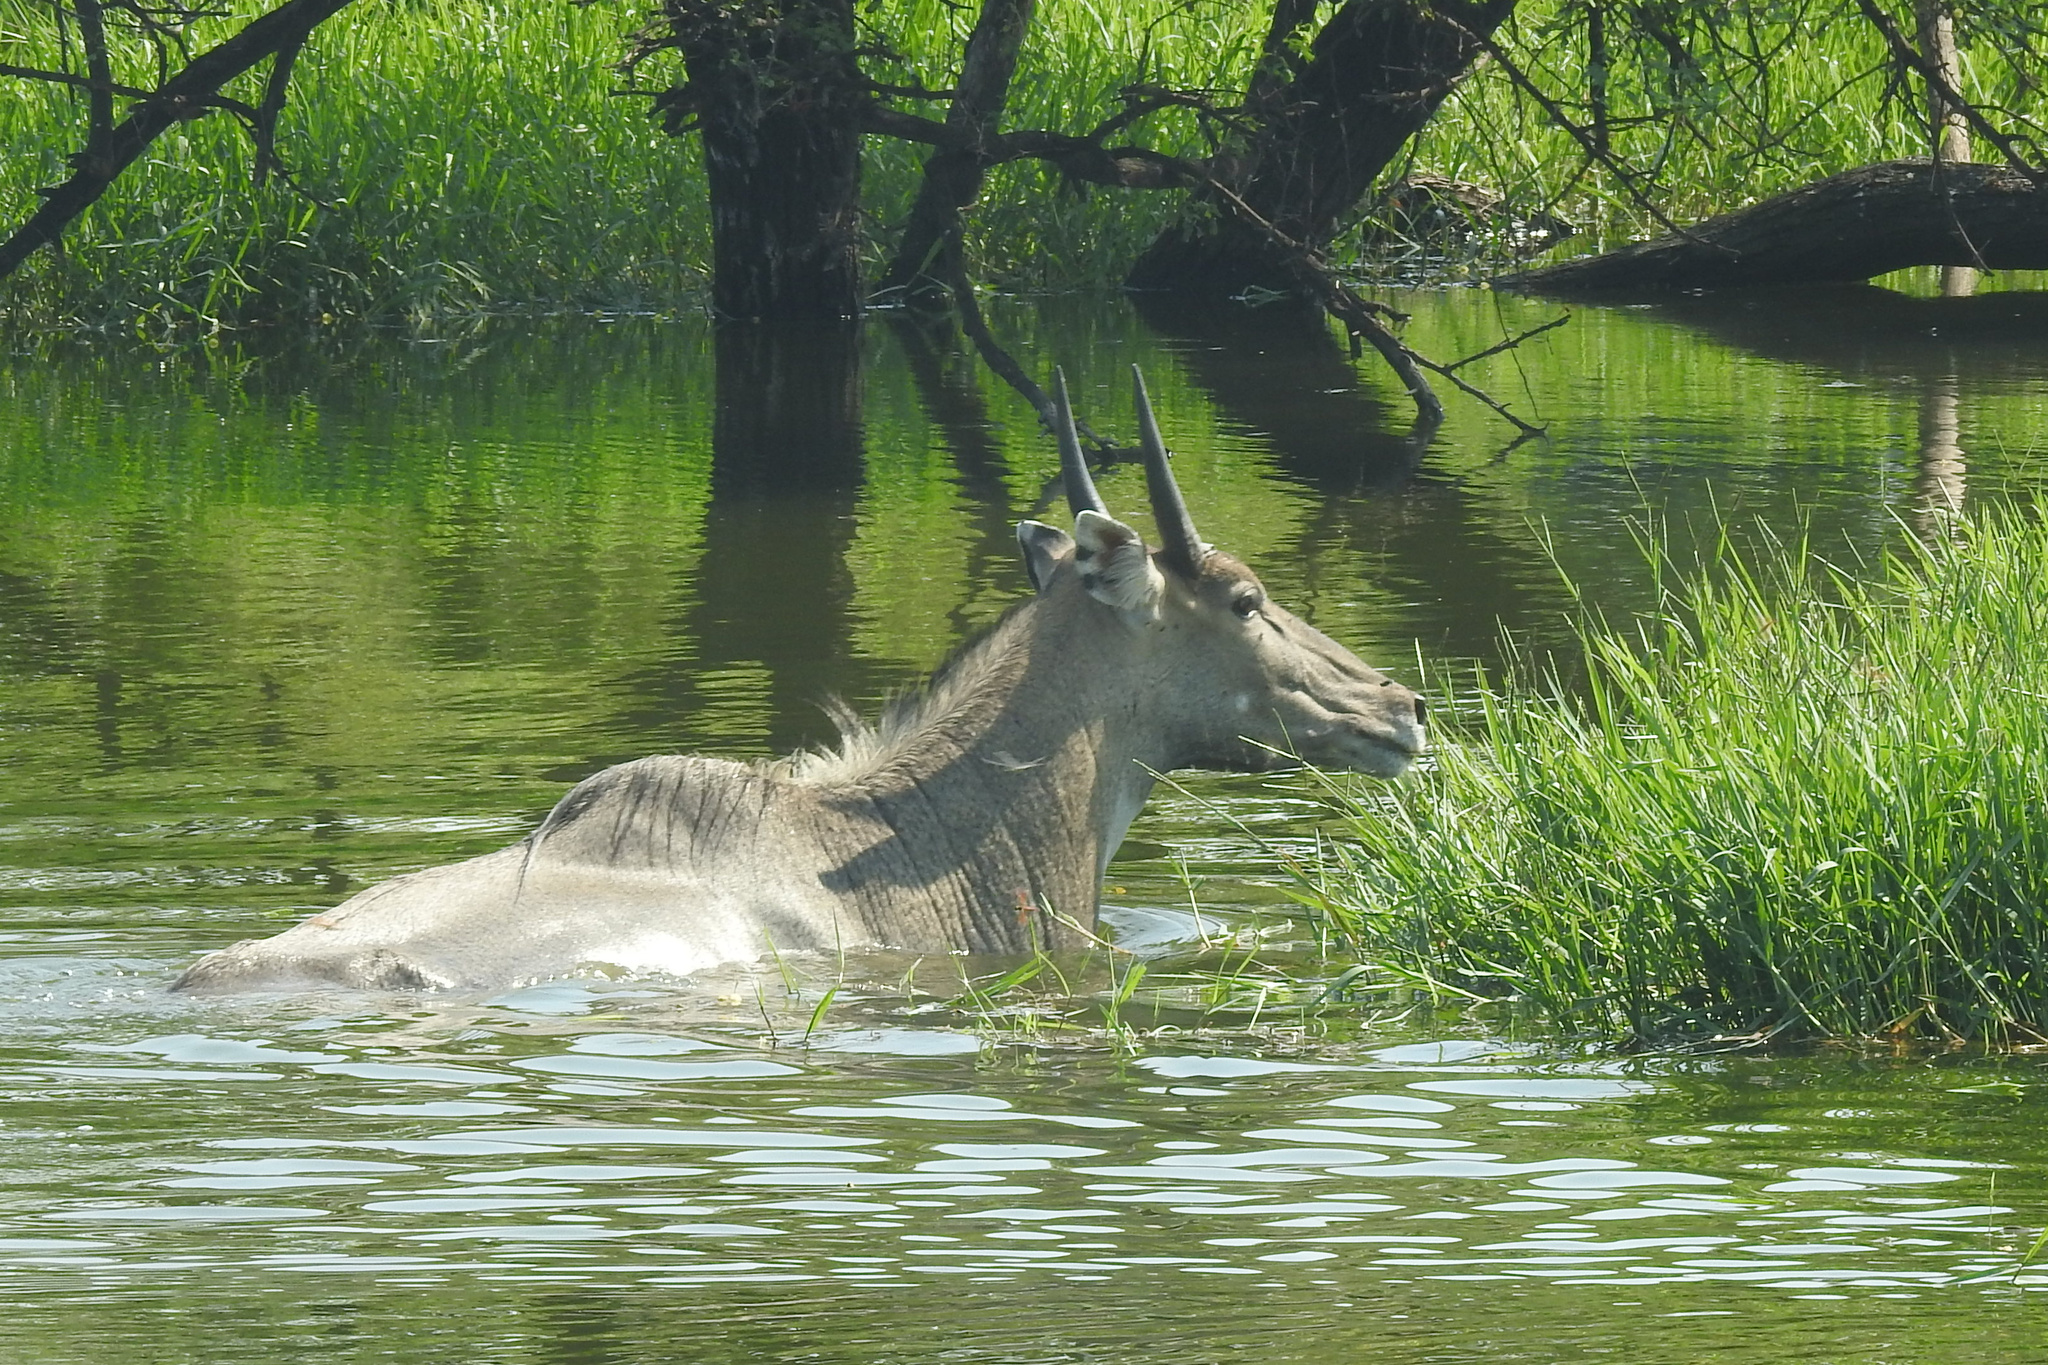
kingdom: Animalia
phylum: Chordata
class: Mammalia
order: Artiodactyla
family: Bovidae
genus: Boselaphus
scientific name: Boselaphus tragocamelus
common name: Nilgai
